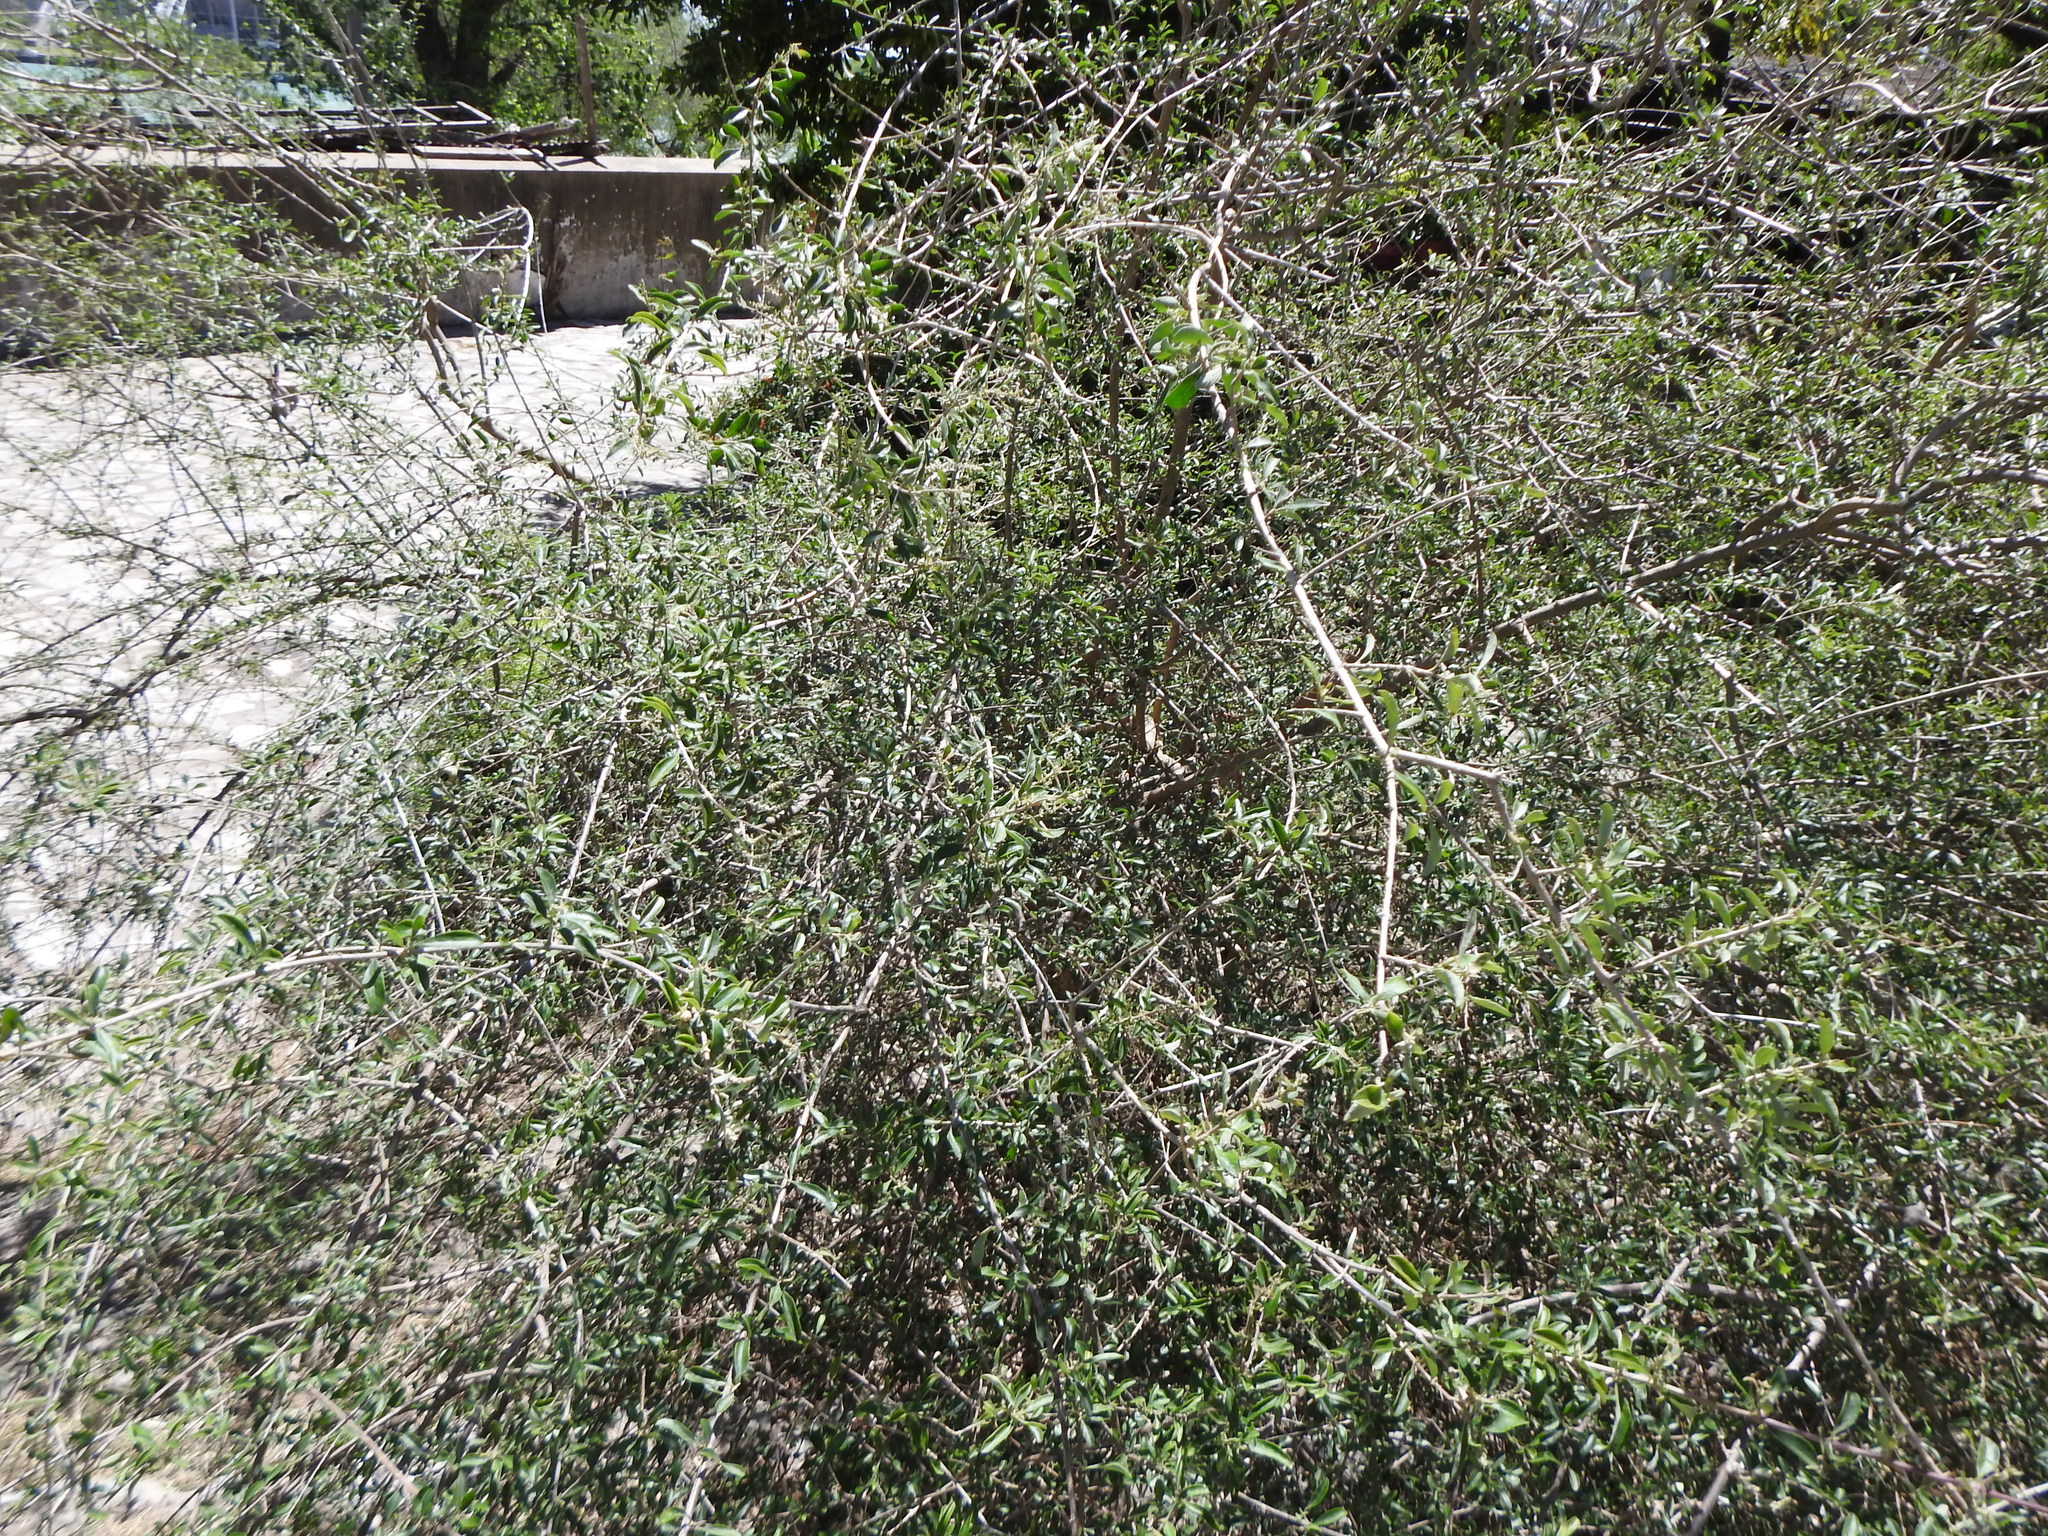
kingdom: Plantae
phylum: Tracheophyta
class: Magnoliopsida
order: Lamiales
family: Verbenaceae
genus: Aloysia
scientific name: Aloysia gratissima
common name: Common bee-brush
